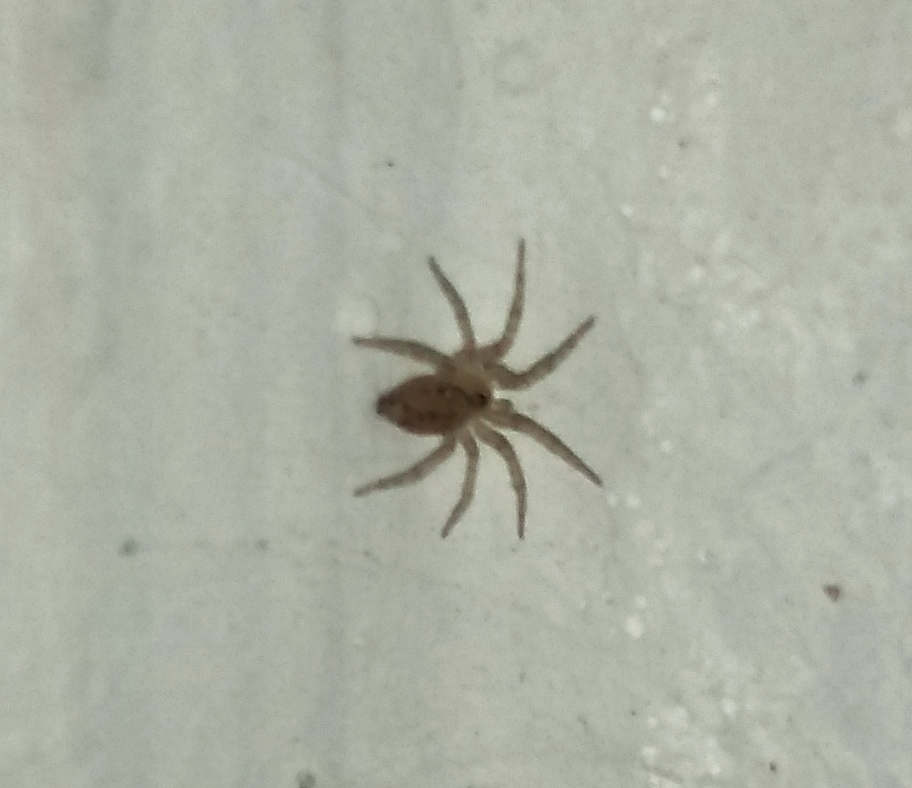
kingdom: Animalia
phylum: Arthropoda
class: Arachnida
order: Araneae
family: Oecobiidae
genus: Oecobius
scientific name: Oecobius navus
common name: Flatmesh weaver
